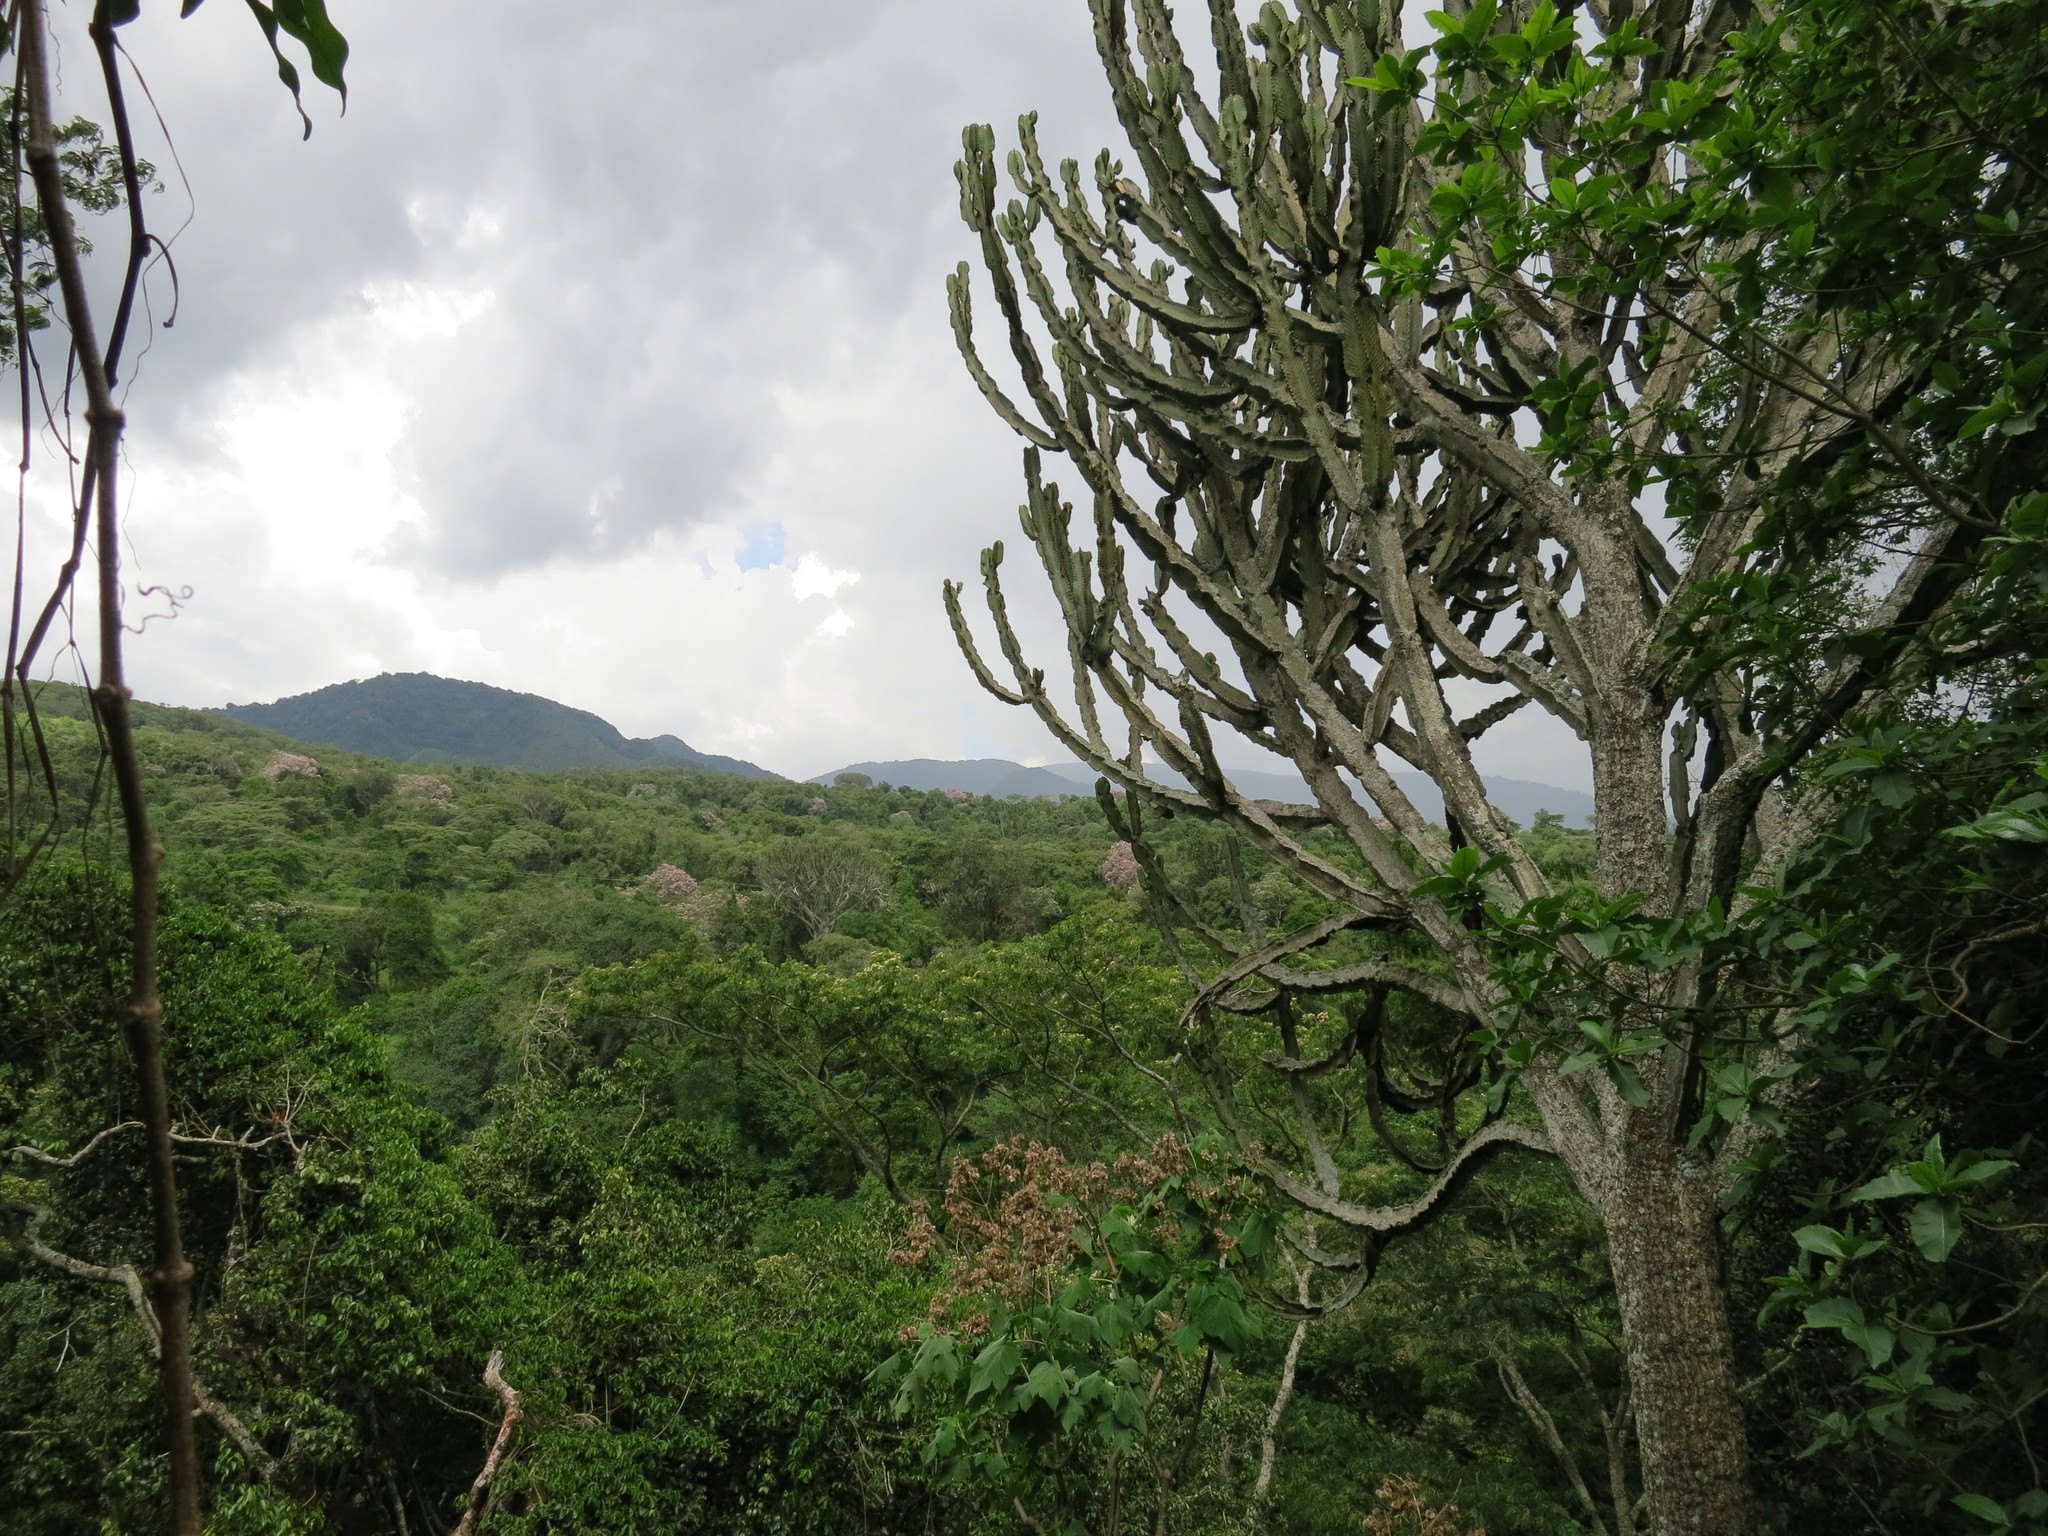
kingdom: Plantae
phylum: Tracheophyta
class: Magnoliopsida
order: Malpighiales
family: Euphorbiaceae
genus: Euphorbia
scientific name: Euphorbia ingens
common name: Cactus spurge
